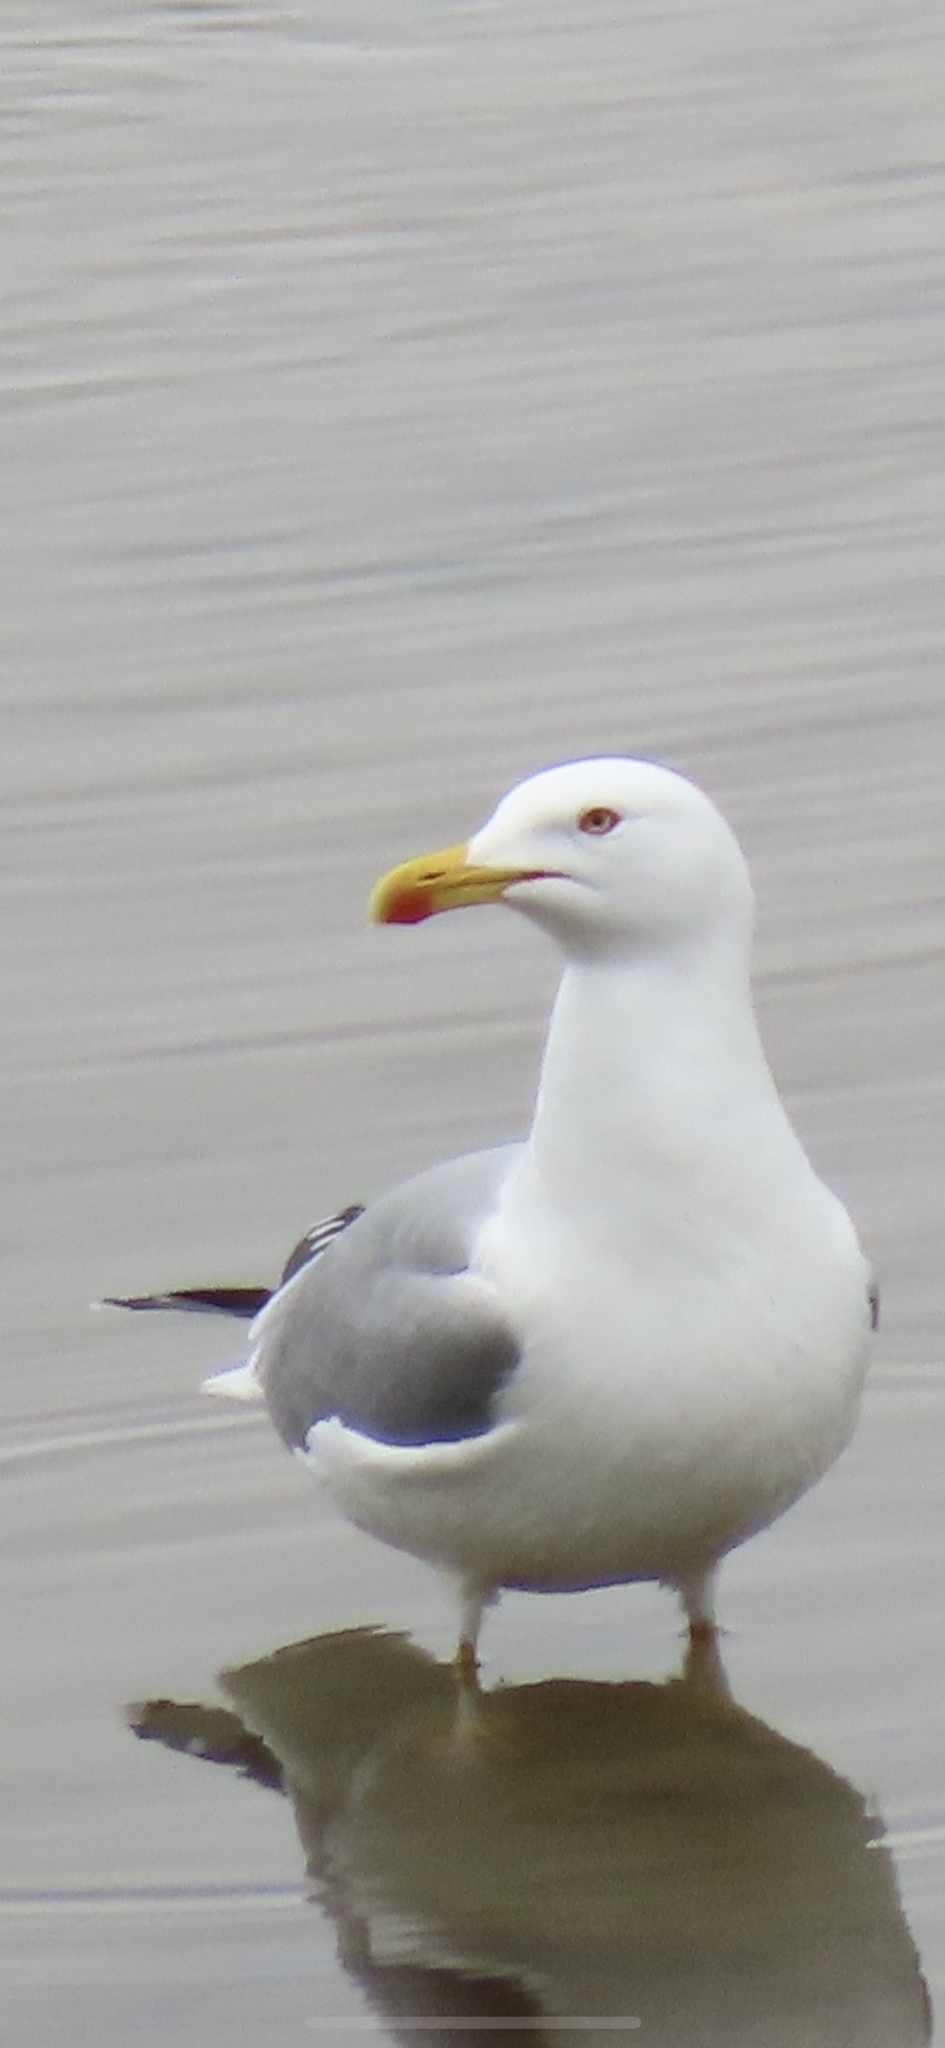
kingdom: Animalia
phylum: Chordata
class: Aves
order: Charadriiformes
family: Laridae
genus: Larus
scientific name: Larus michahellis
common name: Yellow-legged gull
